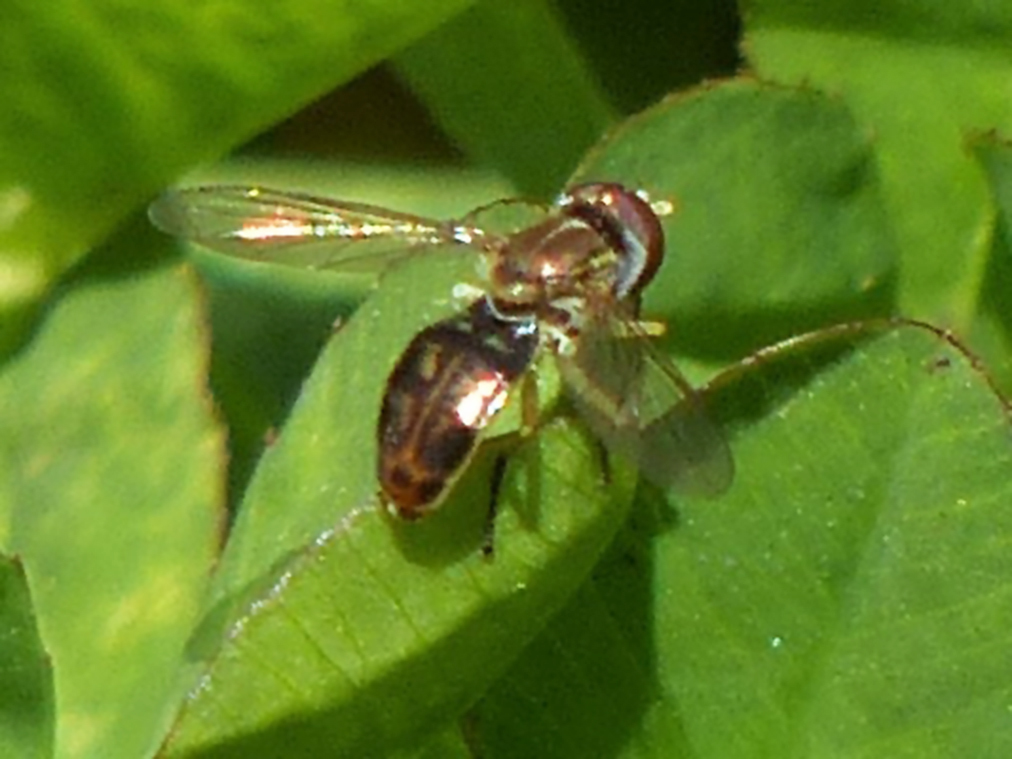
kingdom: Animalia
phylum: Arthropoda
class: Insecta
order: Diptera
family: Syrphidae
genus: Toxomerus
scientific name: Toxomerus marginatus
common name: Syrphid fly
